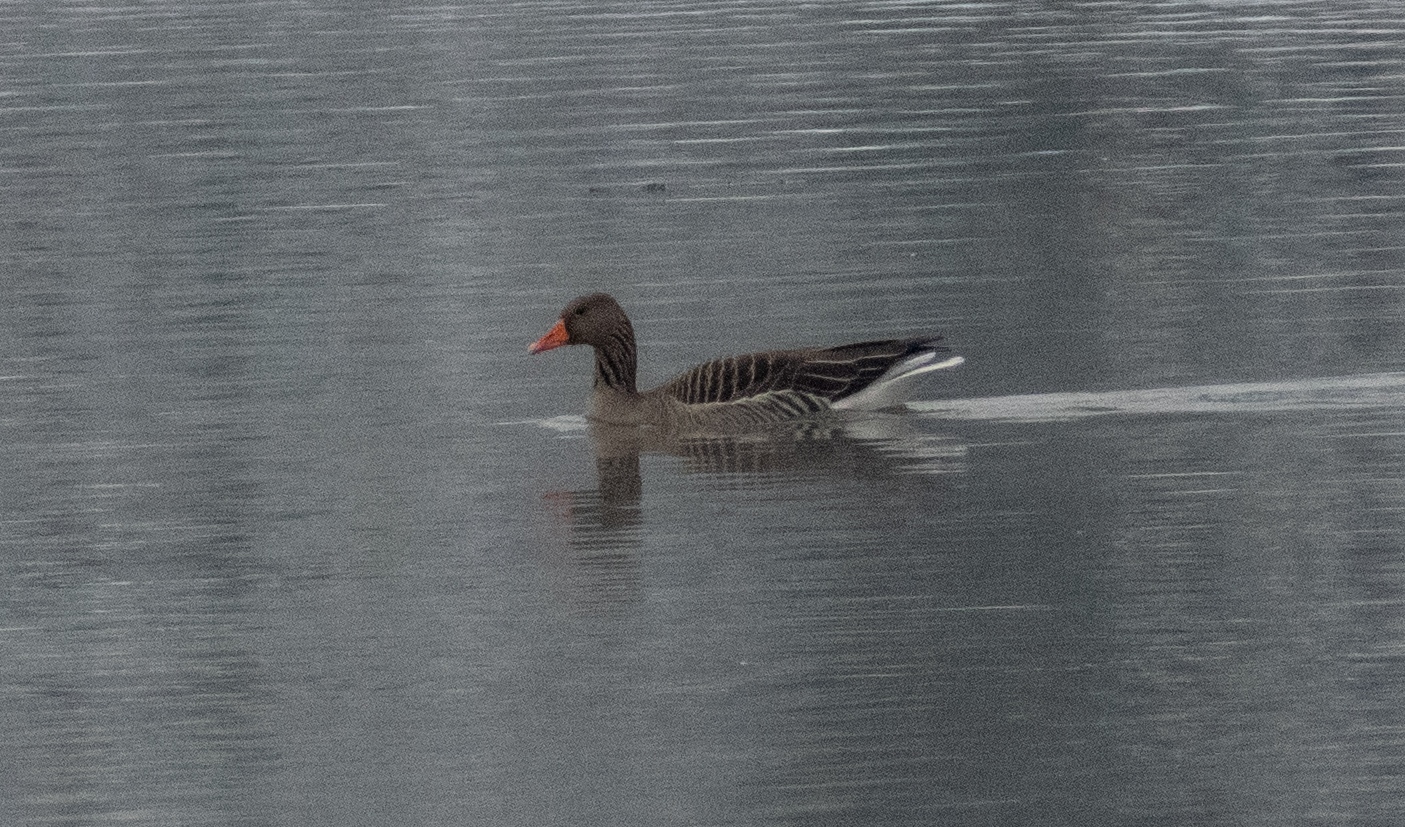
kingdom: Animalia
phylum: Chordata
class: Aves
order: Anseriformes
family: Anatidae
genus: Anser
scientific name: Anser anser
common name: Greylag goose
